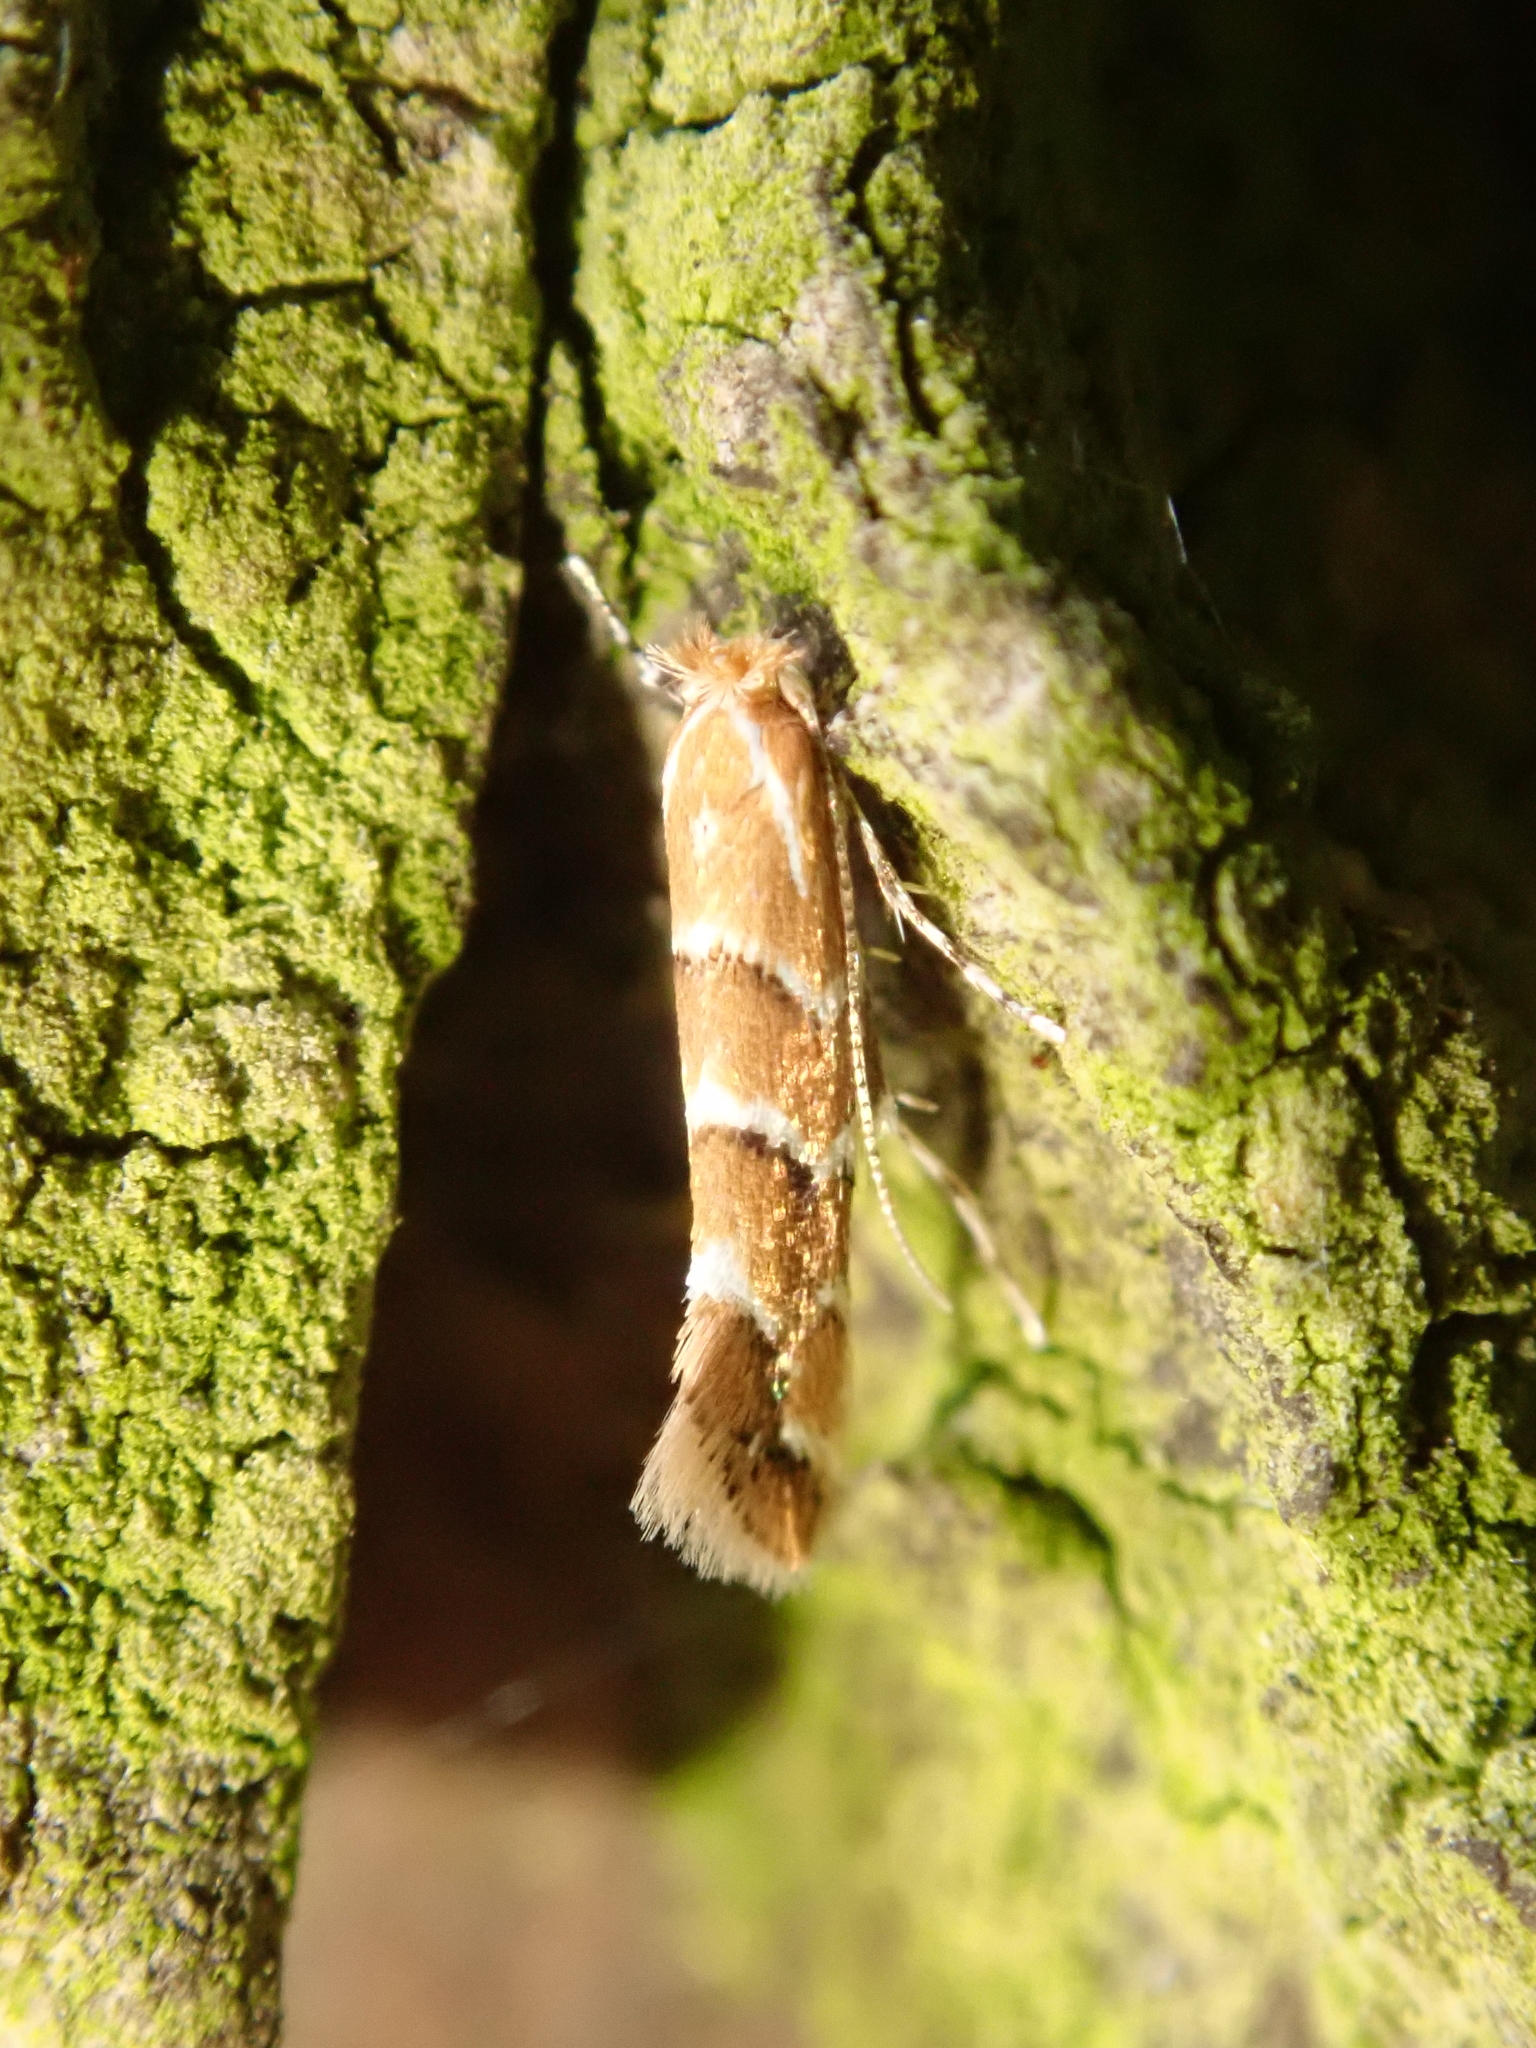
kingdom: Animalia
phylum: Arthropoda
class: Insecta
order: Lepidoptera
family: Gracillariidae
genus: Cameraria
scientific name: Cameraria ohridella
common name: Horse-chestnut leaf-miner
